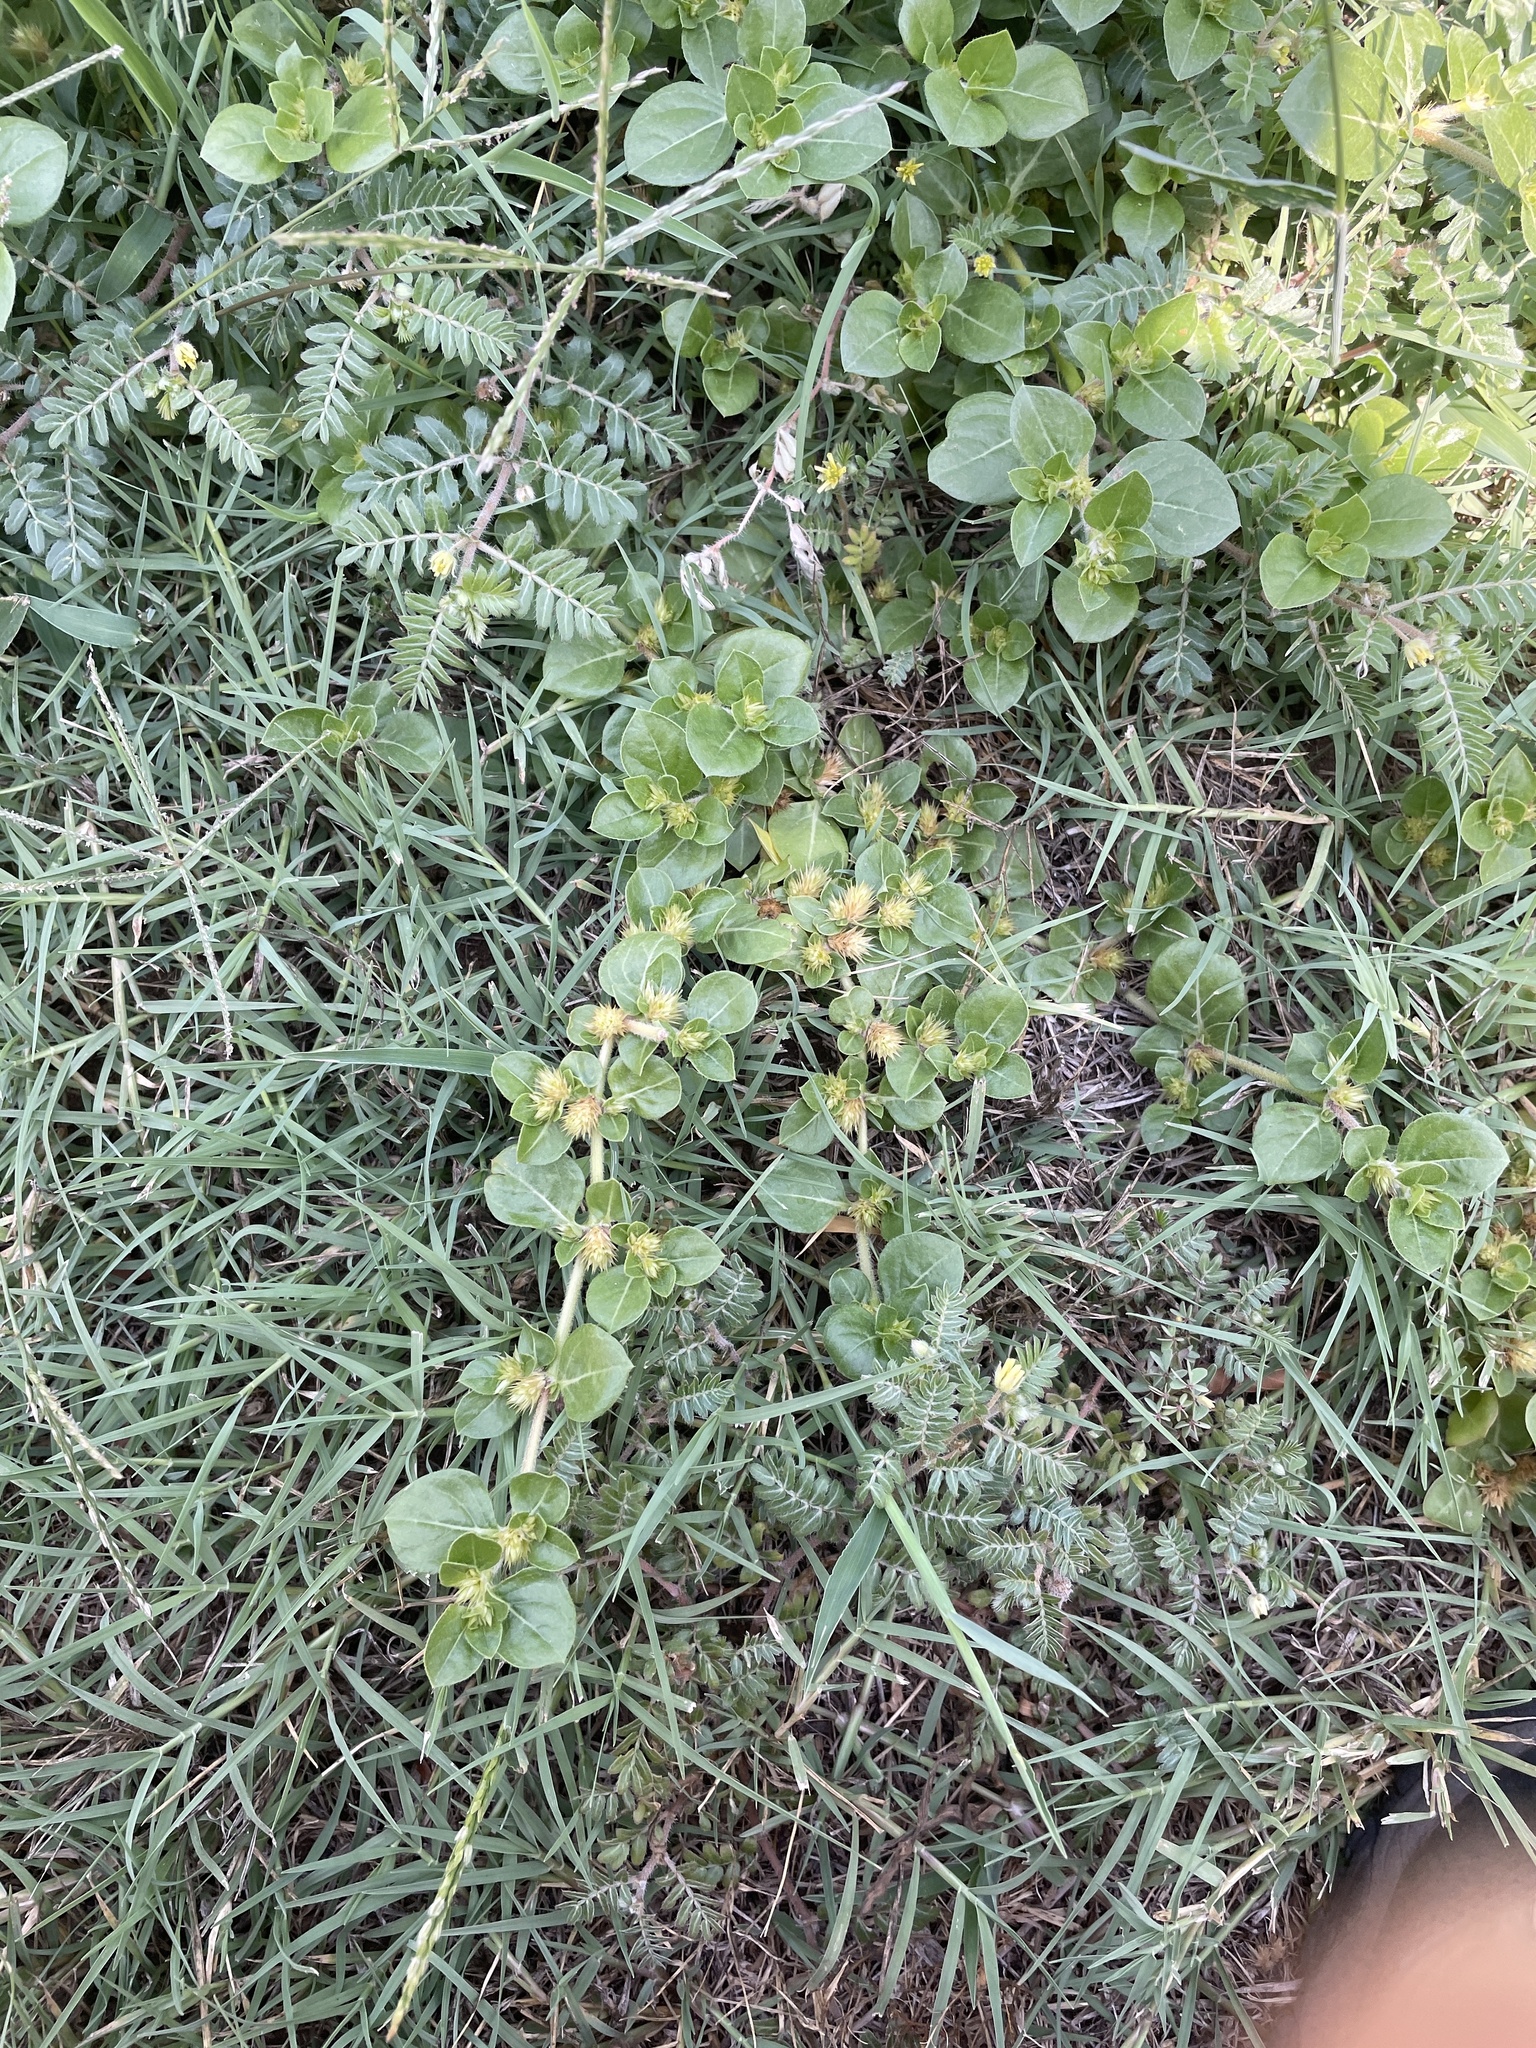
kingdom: Plantae
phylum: Tracheophyta
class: Magnoliopsida
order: Caryophyllales
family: Amaranthaceae
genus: Alternanthera
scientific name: Alternanthera pungens
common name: Khakiweed
